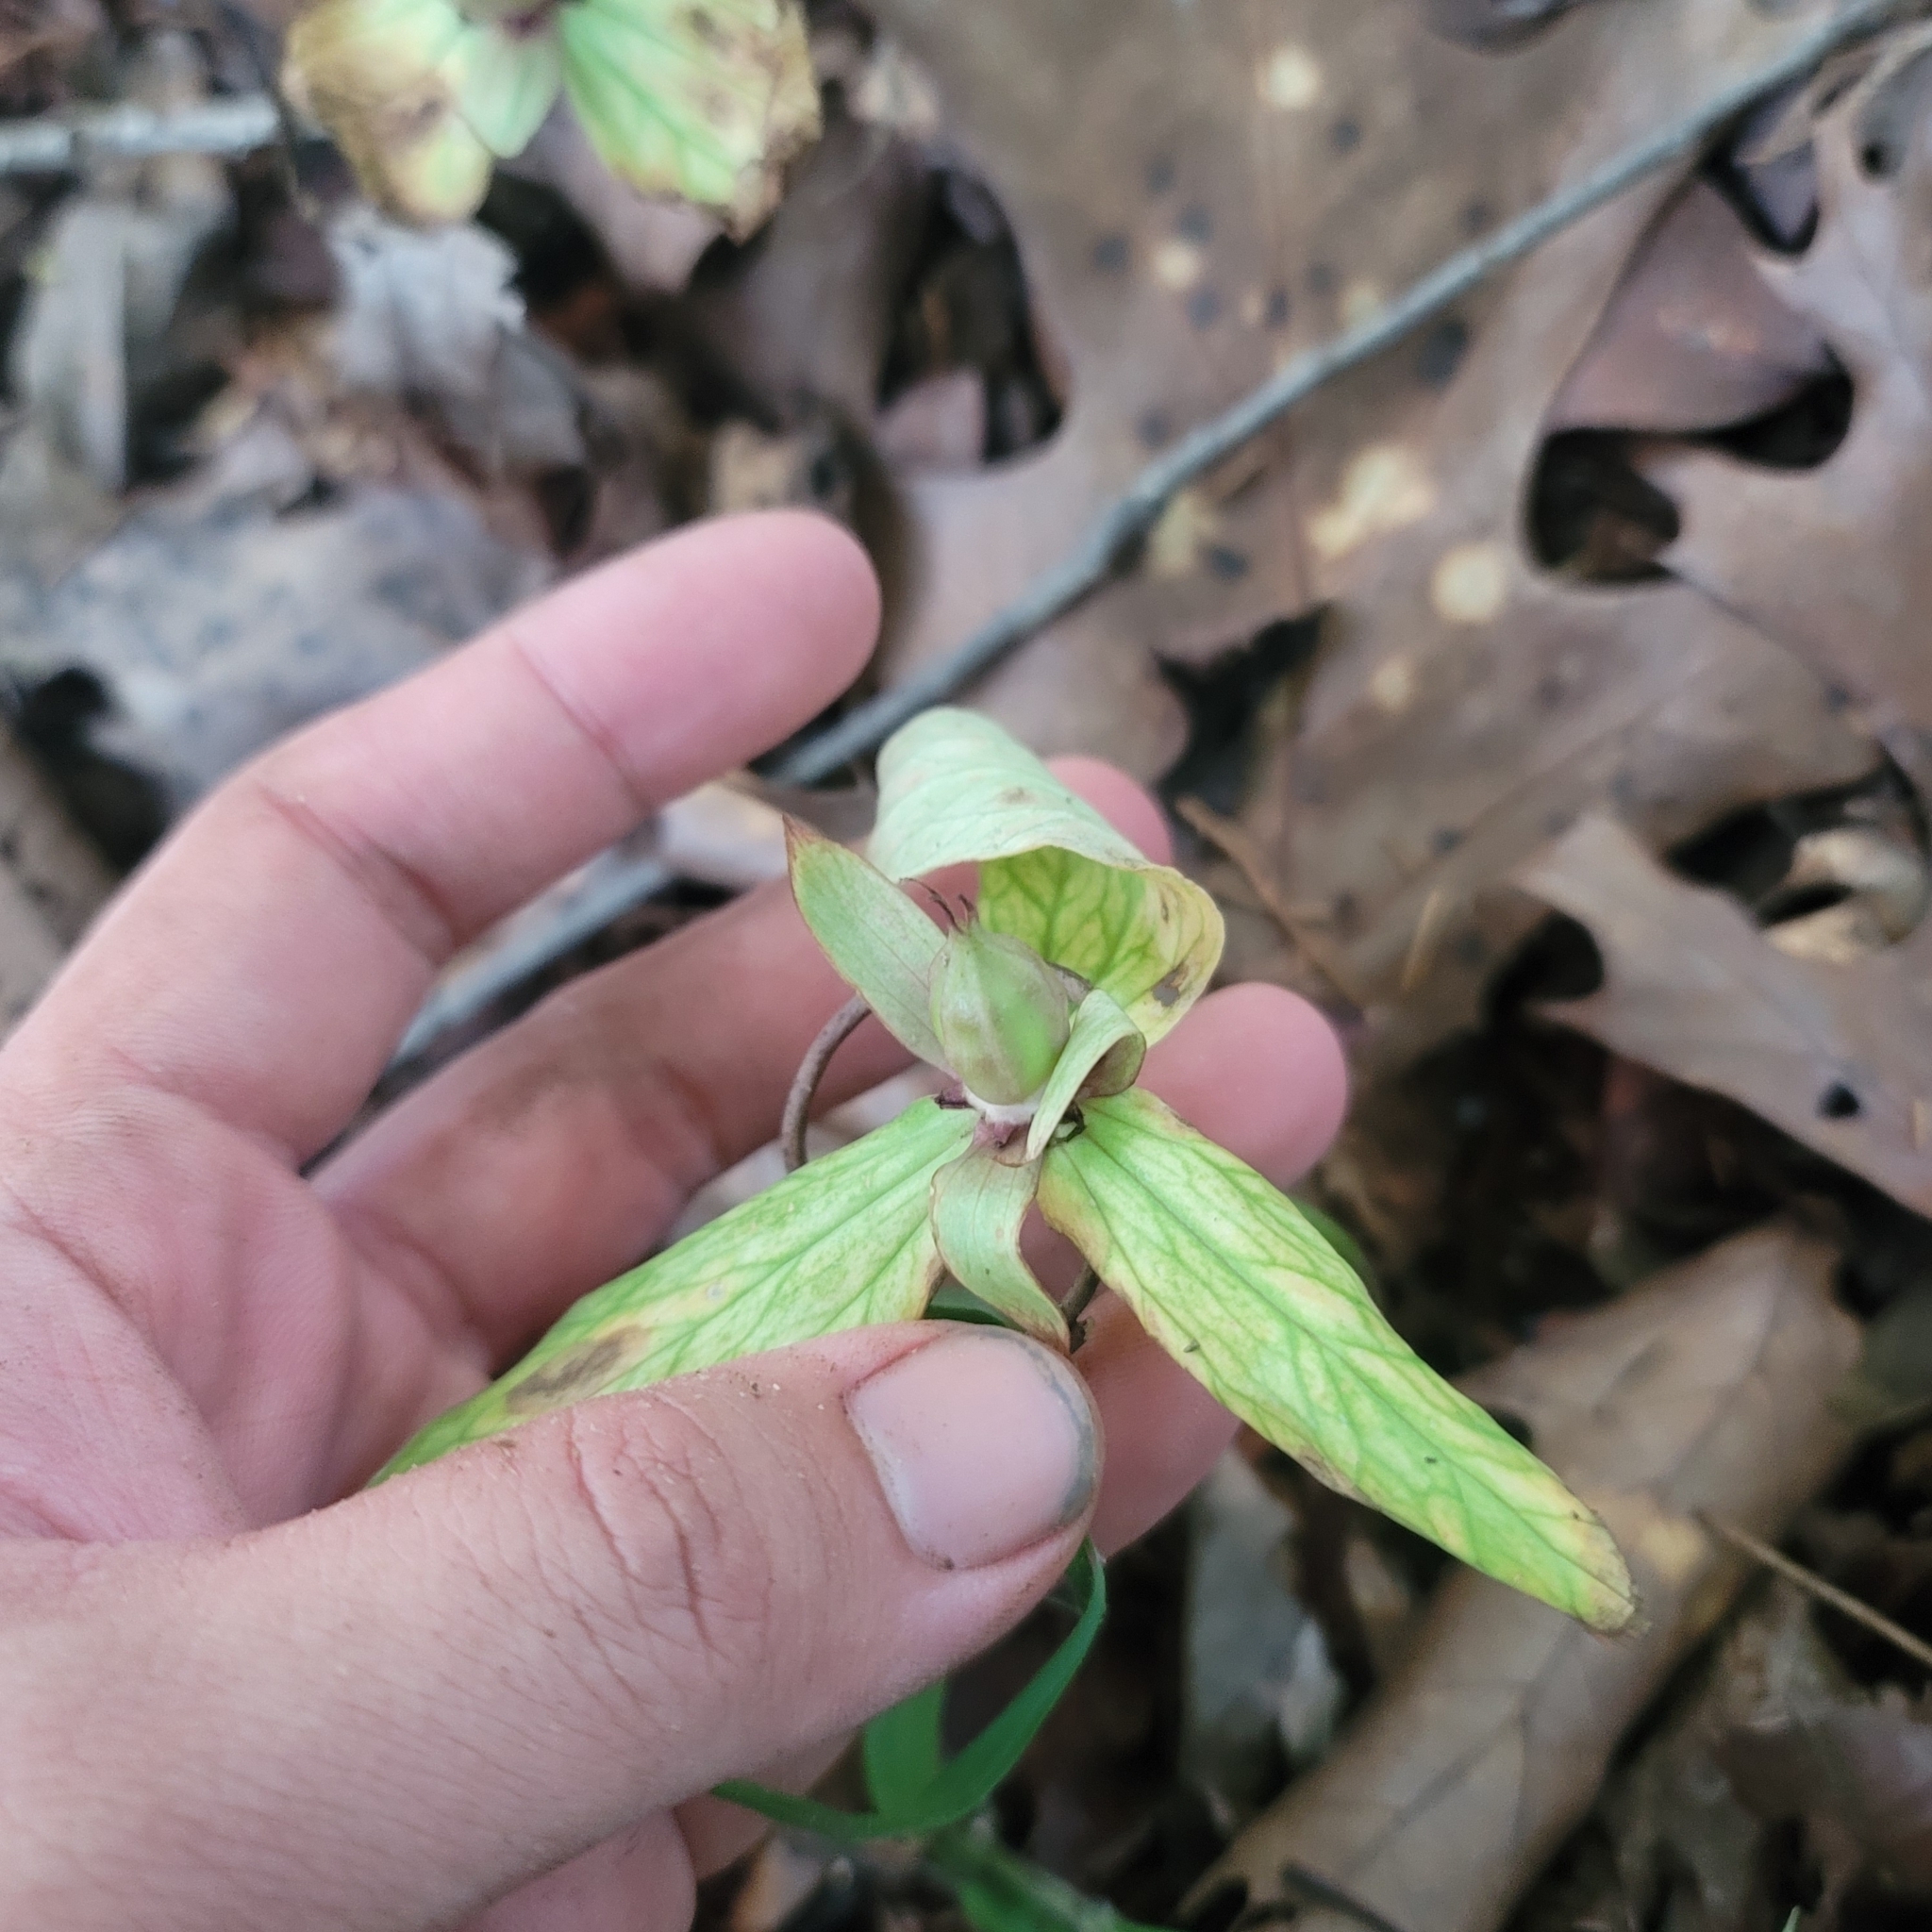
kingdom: Plantae
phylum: Tracheophyta
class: Liliopsida
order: Liliales
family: Melanthiaceae
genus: Trillium
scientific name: Trillium lancifolium
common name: Lance-leaved trillium
